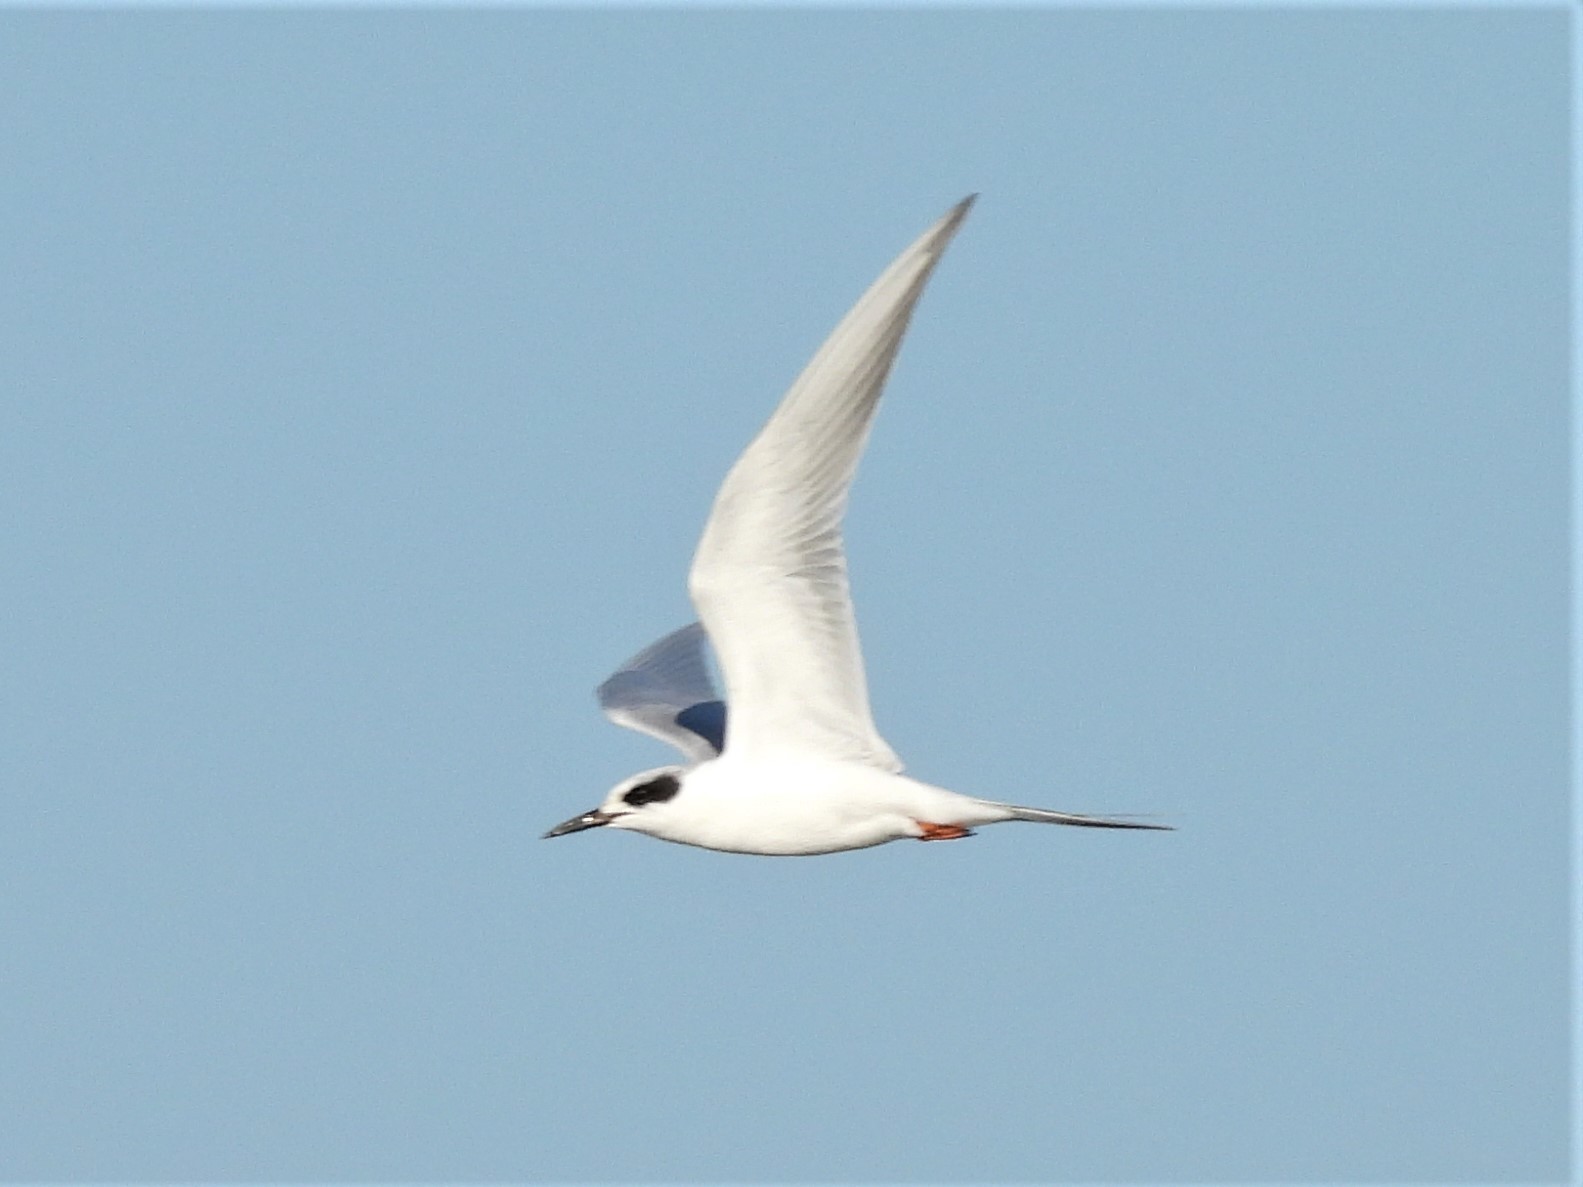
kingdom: Animalia
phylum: Chordata
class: Aves
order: Charadriiformes
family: Laridae
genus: Sterna
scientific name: Sterna forsteri
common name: Forster's tern
